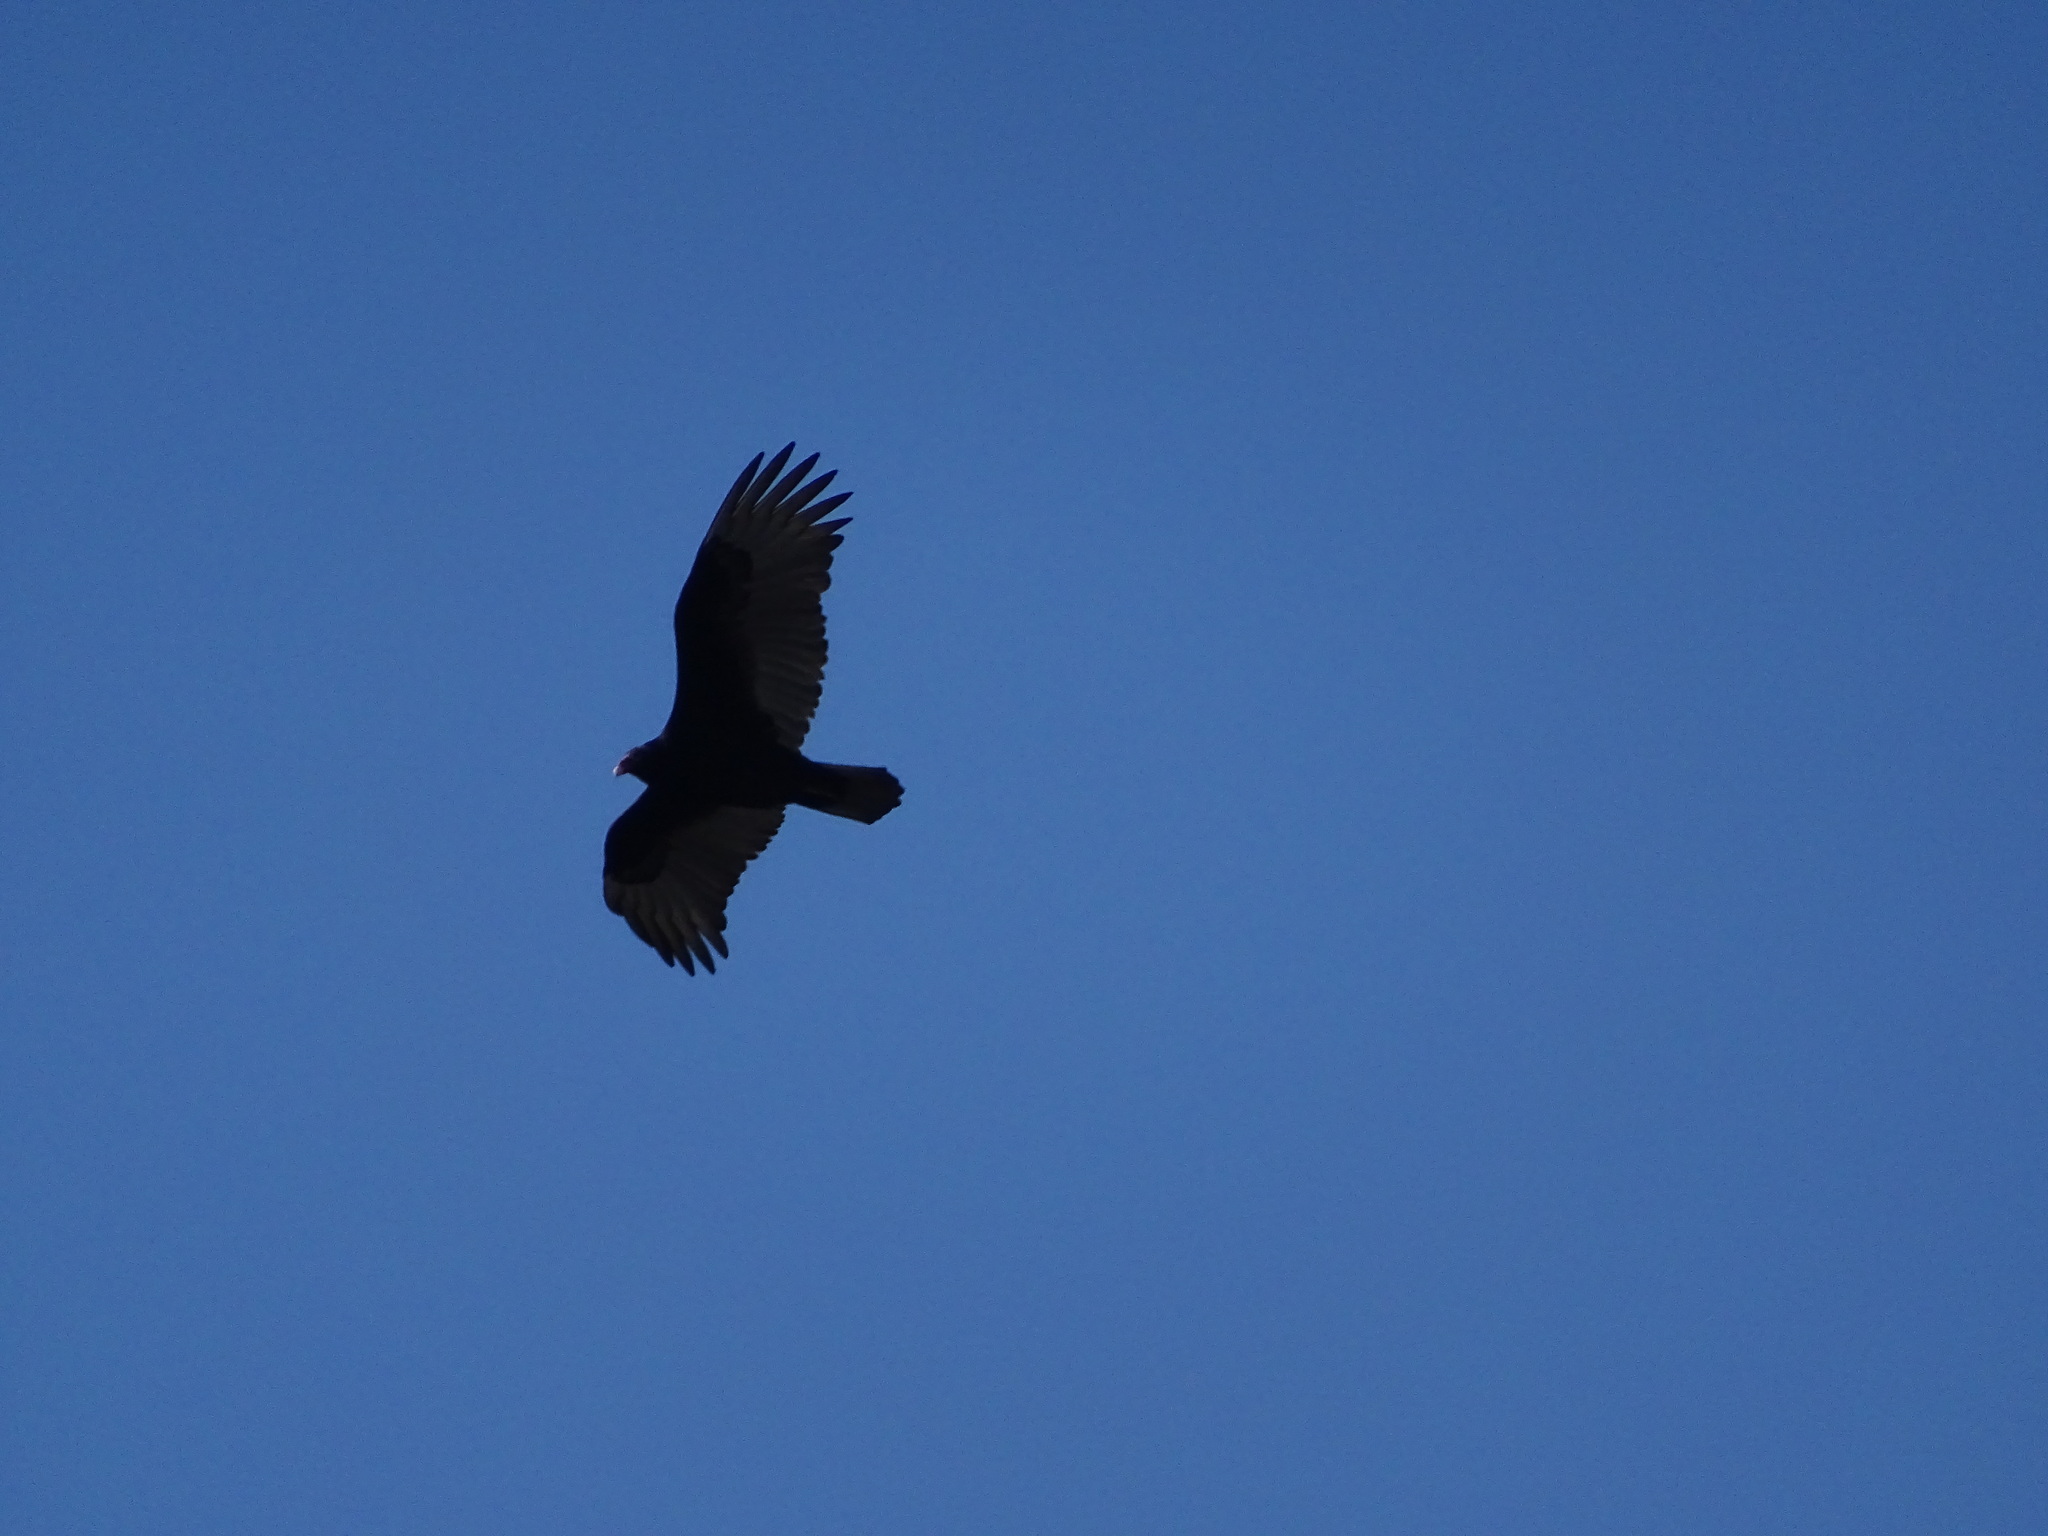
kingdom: Animalia
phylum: Chordata
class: Aves
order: Accipitriformes
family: Cathartidae
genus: Cathartes
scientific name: Cathartes aura
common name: Turkey vulture
